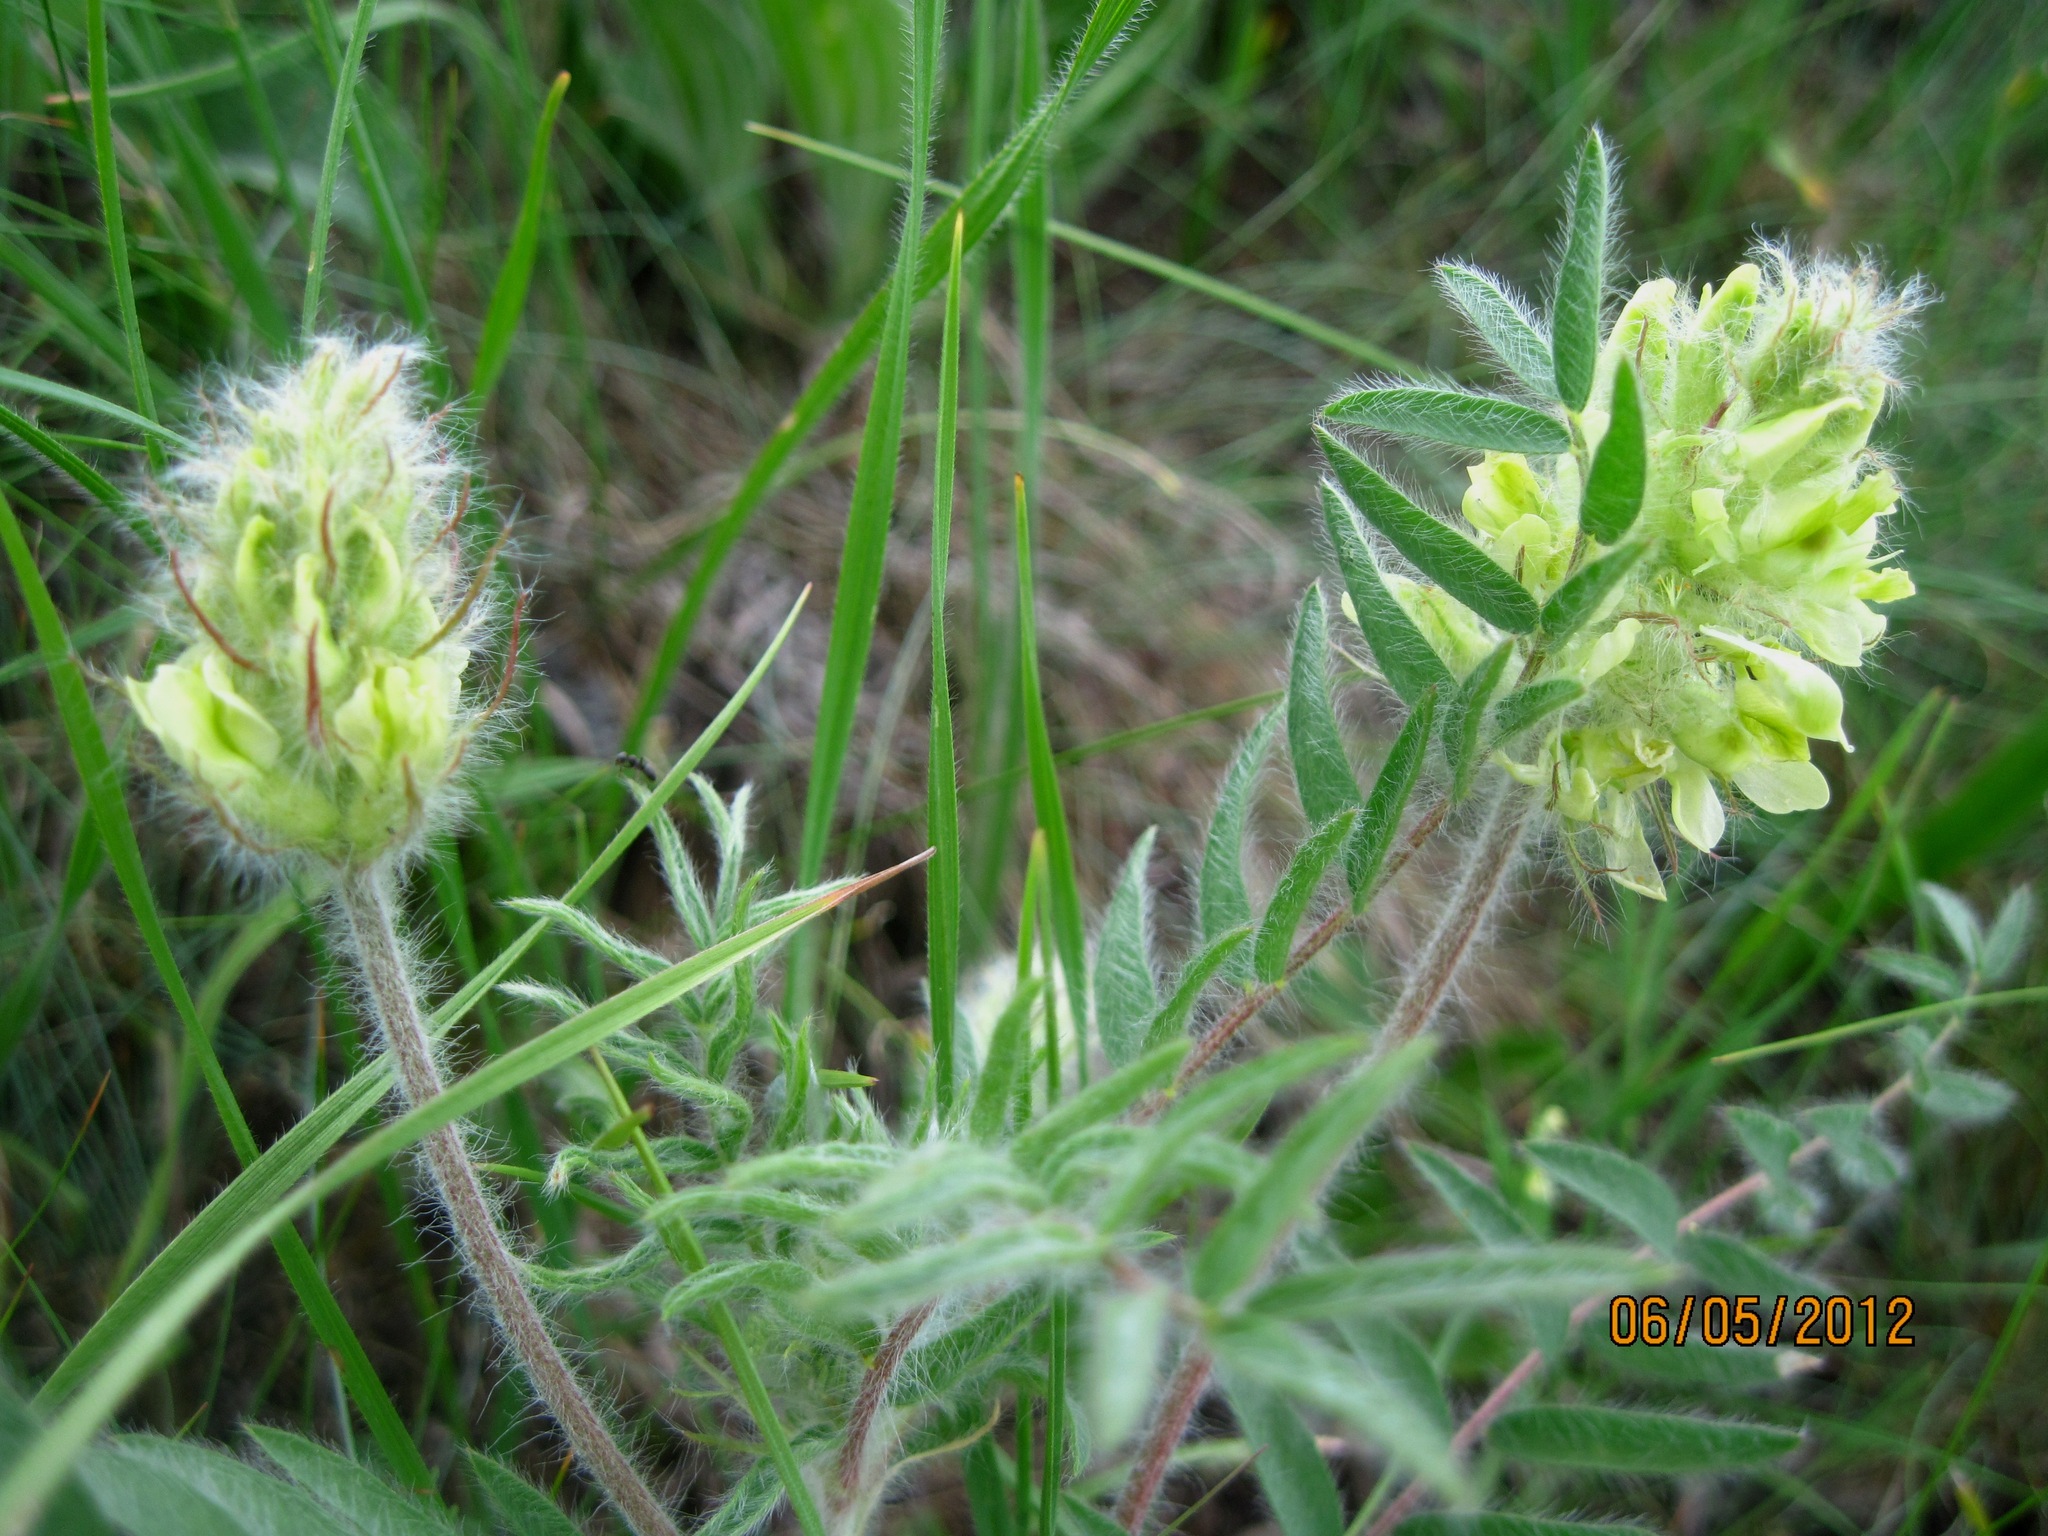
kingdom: Plantae
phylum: Tracheophyta
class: Magnoliopsida
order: Fabales
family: Fabaceae
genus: Oxytropis
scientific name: Oxytropis pilosa
